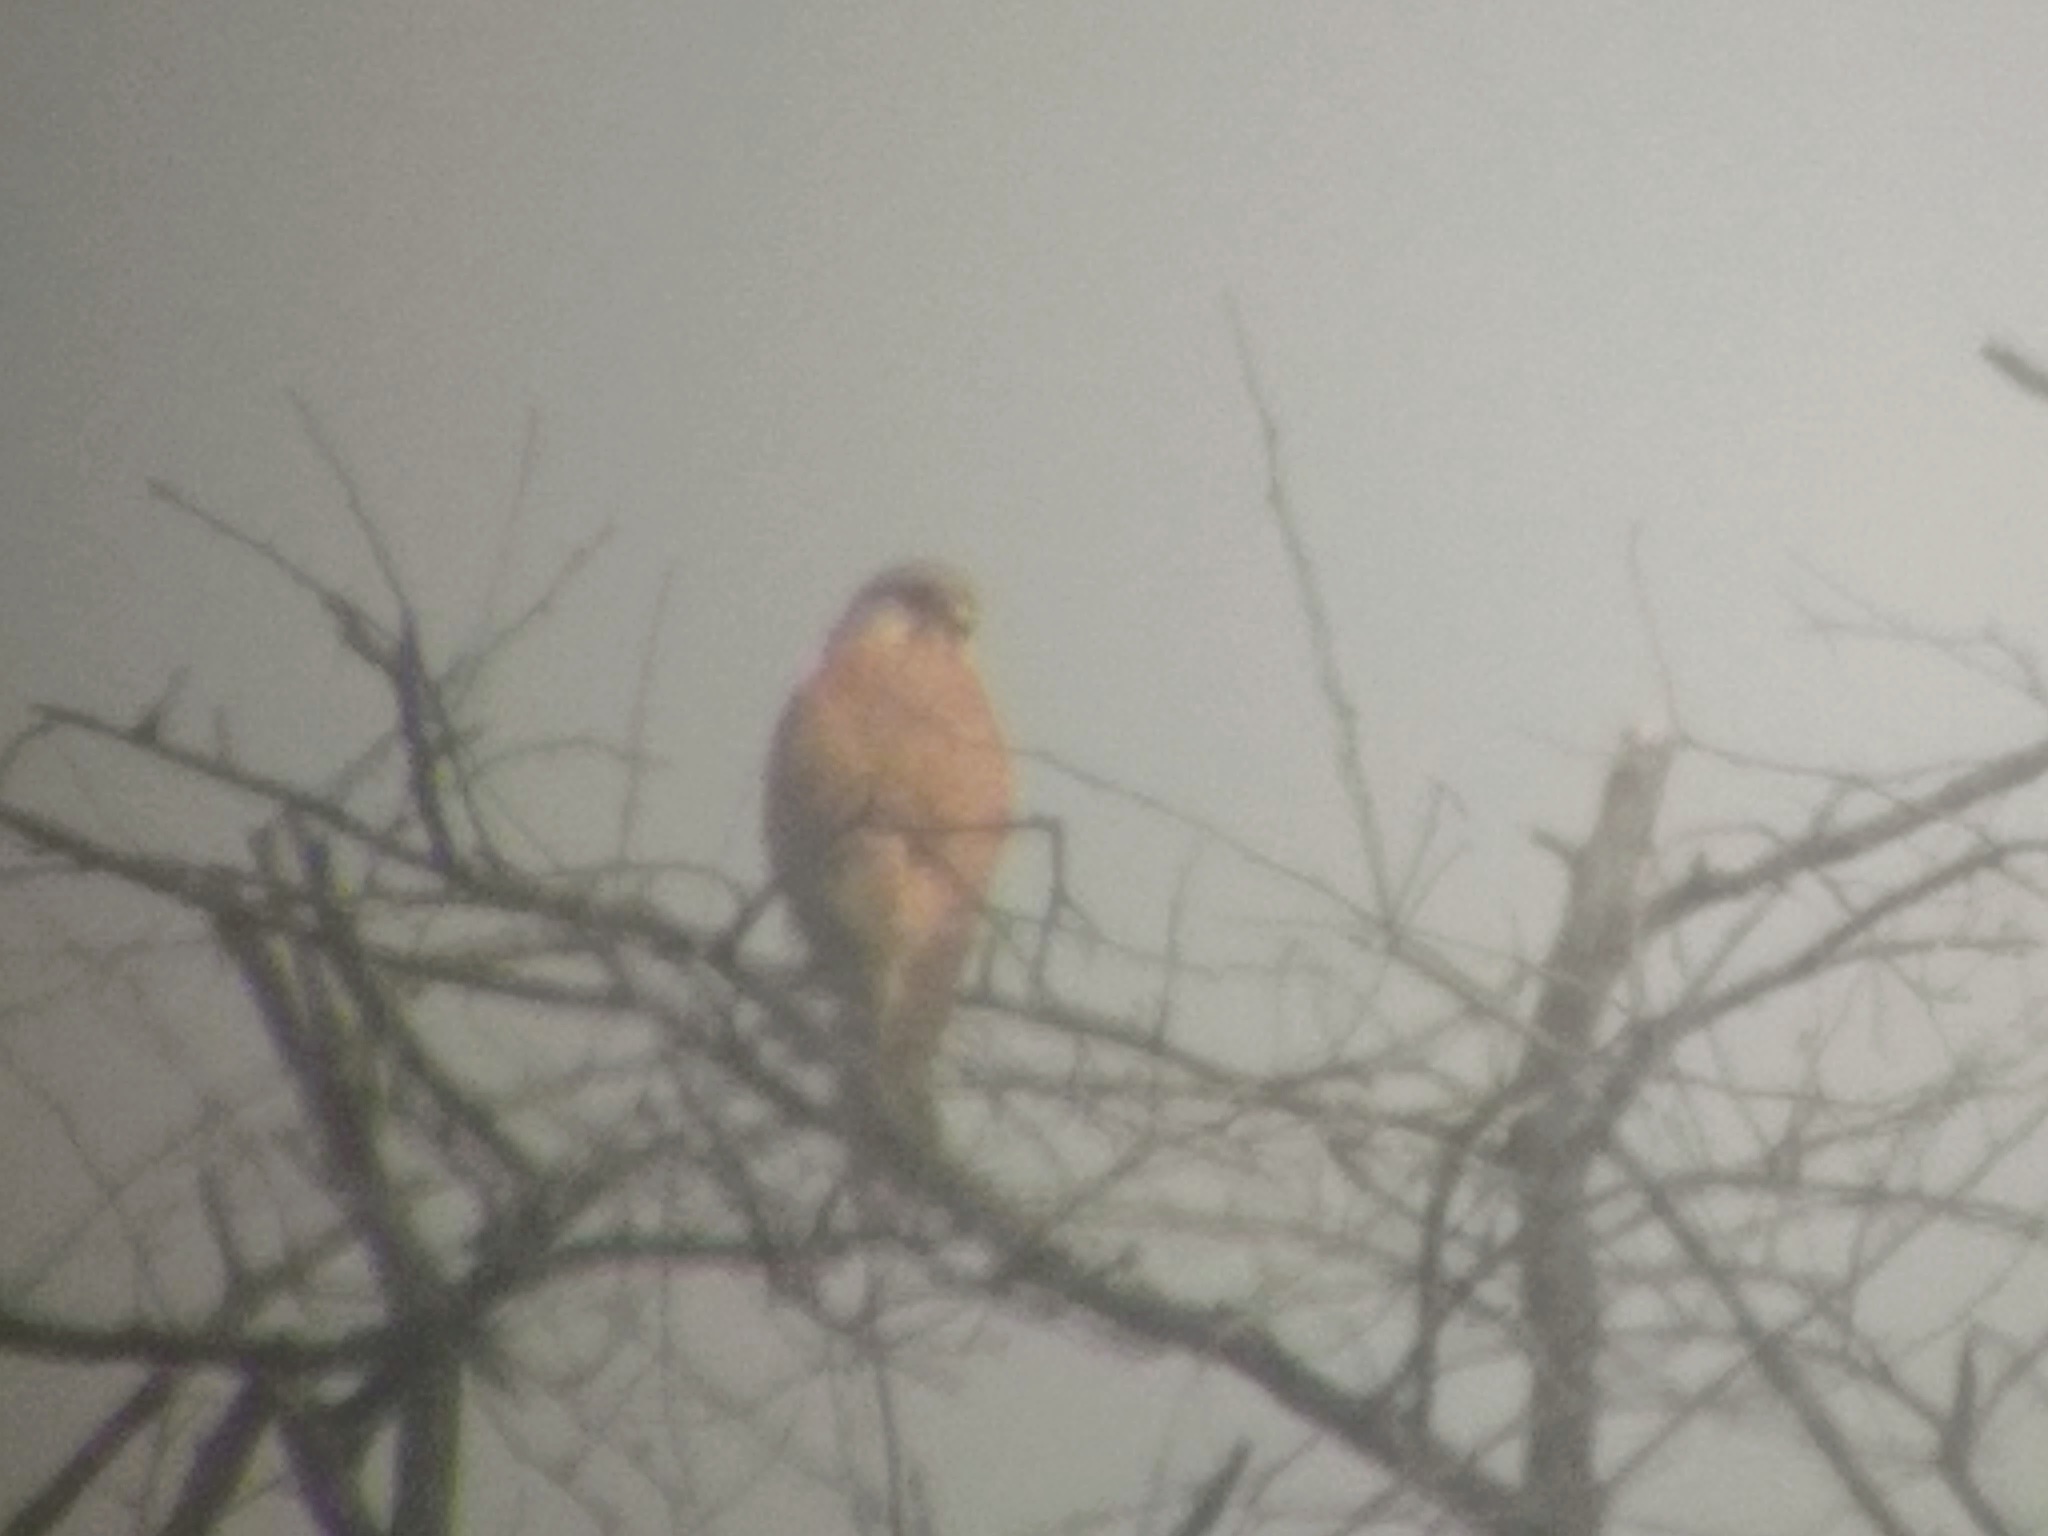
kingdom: Animalia
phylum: Chordata
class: Aves
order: Falconiformes
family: Falconidae
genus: Falco
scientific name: Falco tinnunculus
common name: Common kestrel
